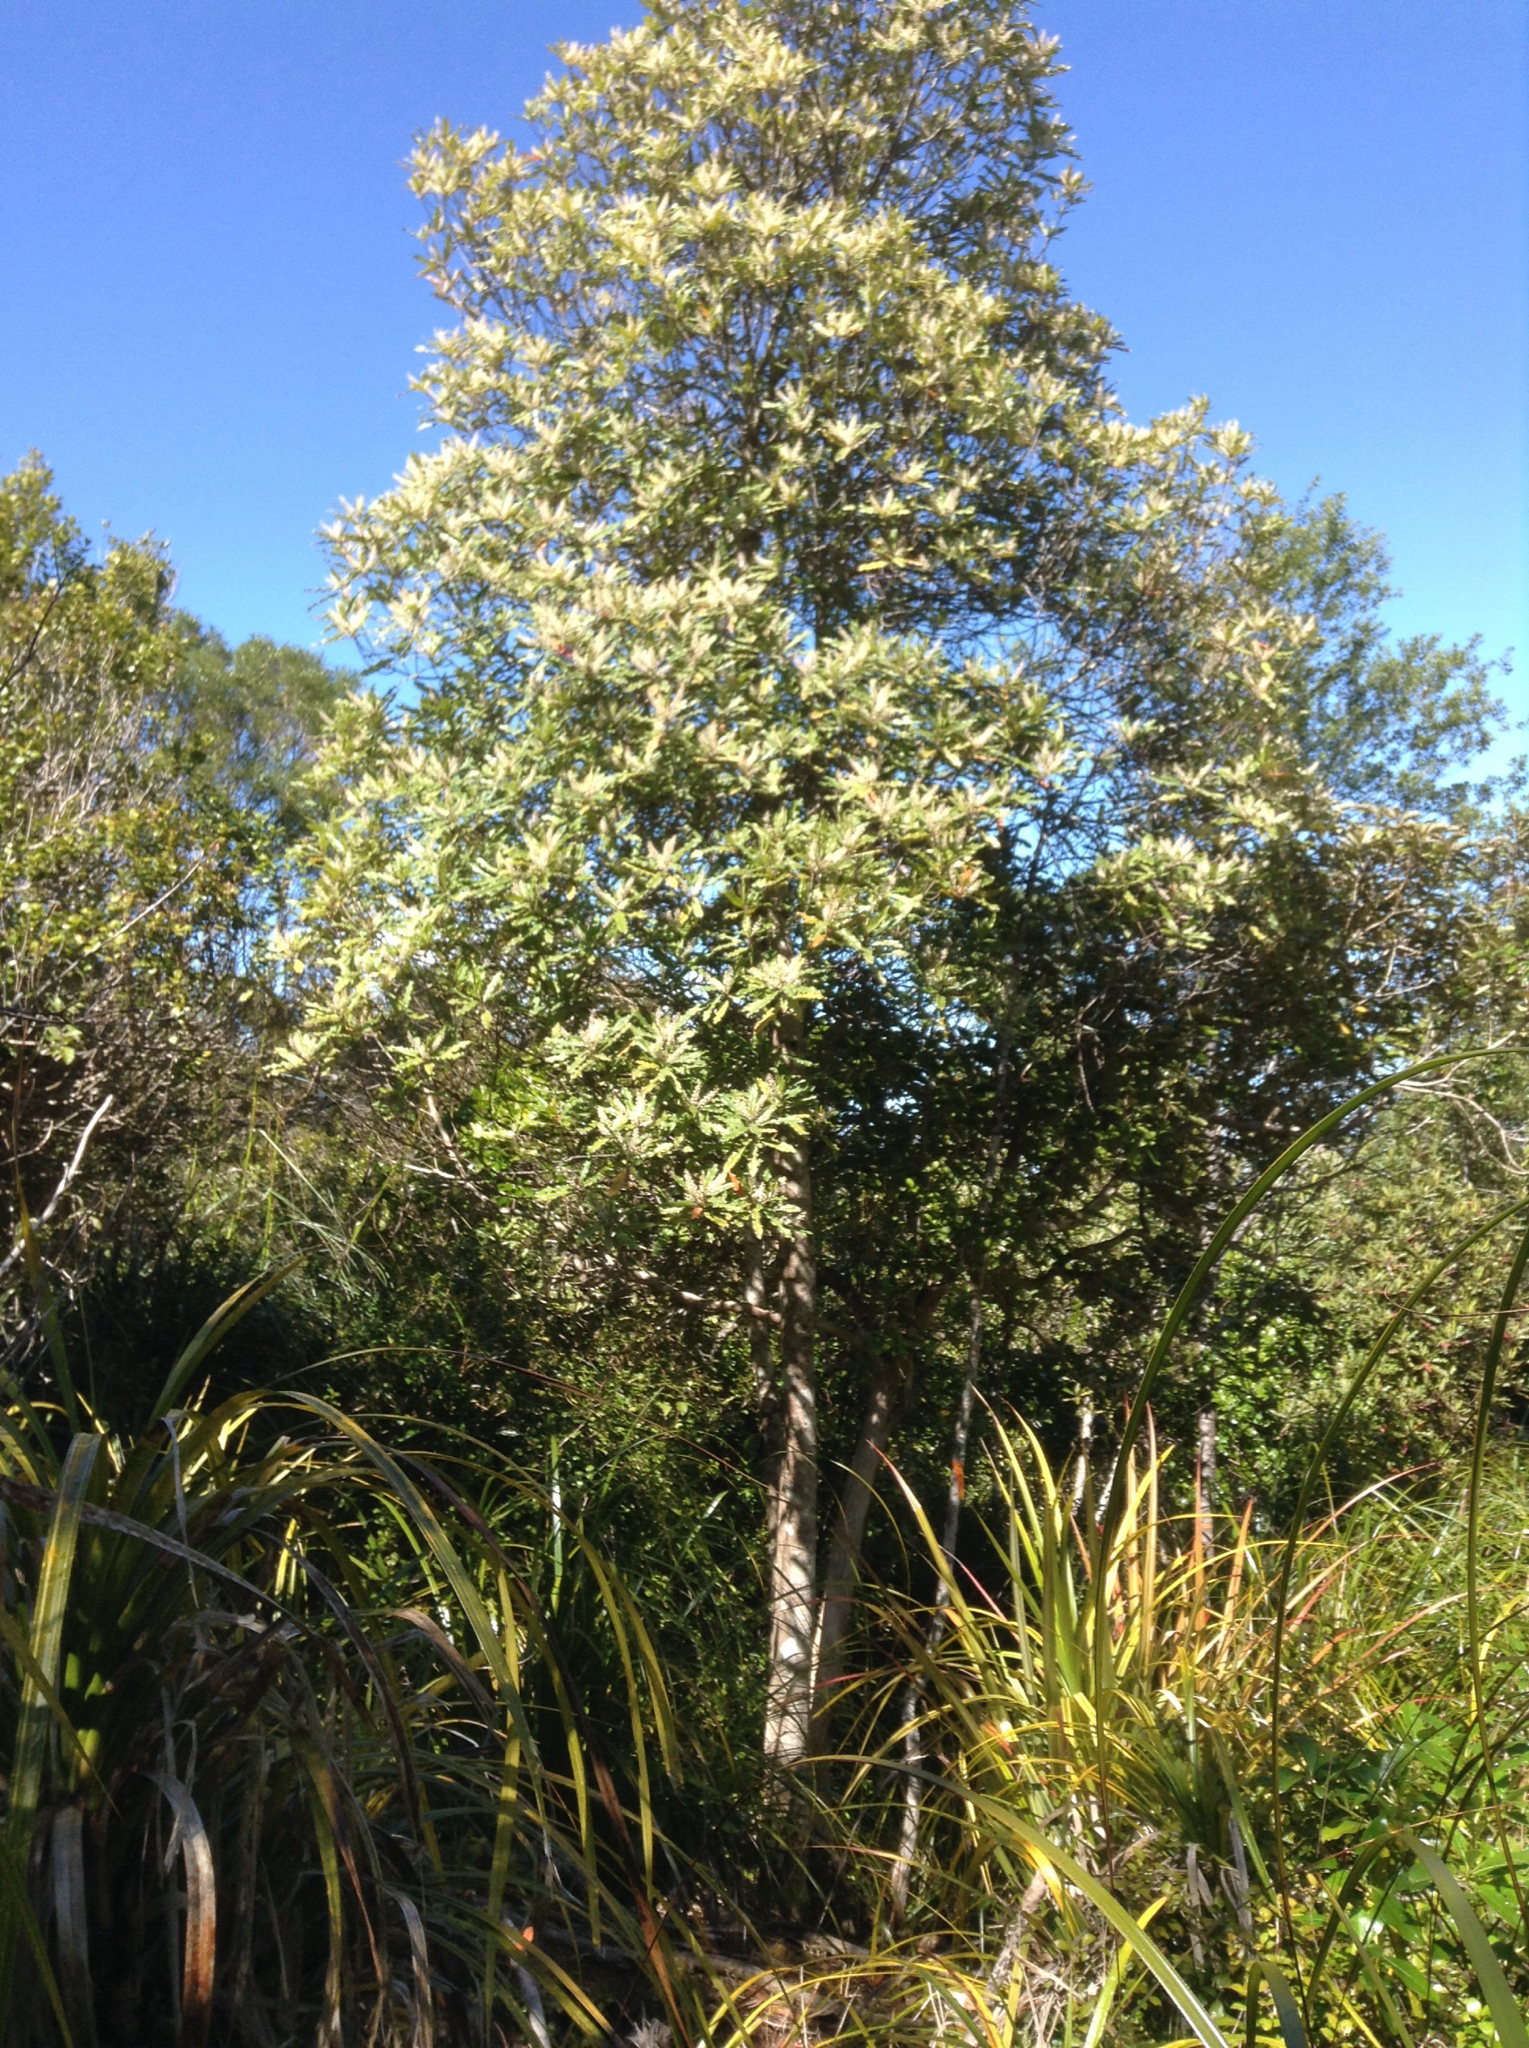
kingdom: Plantae
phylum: Tracheophyta
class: Magnoliopsida
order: Paracryphiales
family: Paracryphiaceae
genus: Quintinia
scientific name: Quintinia serrata
